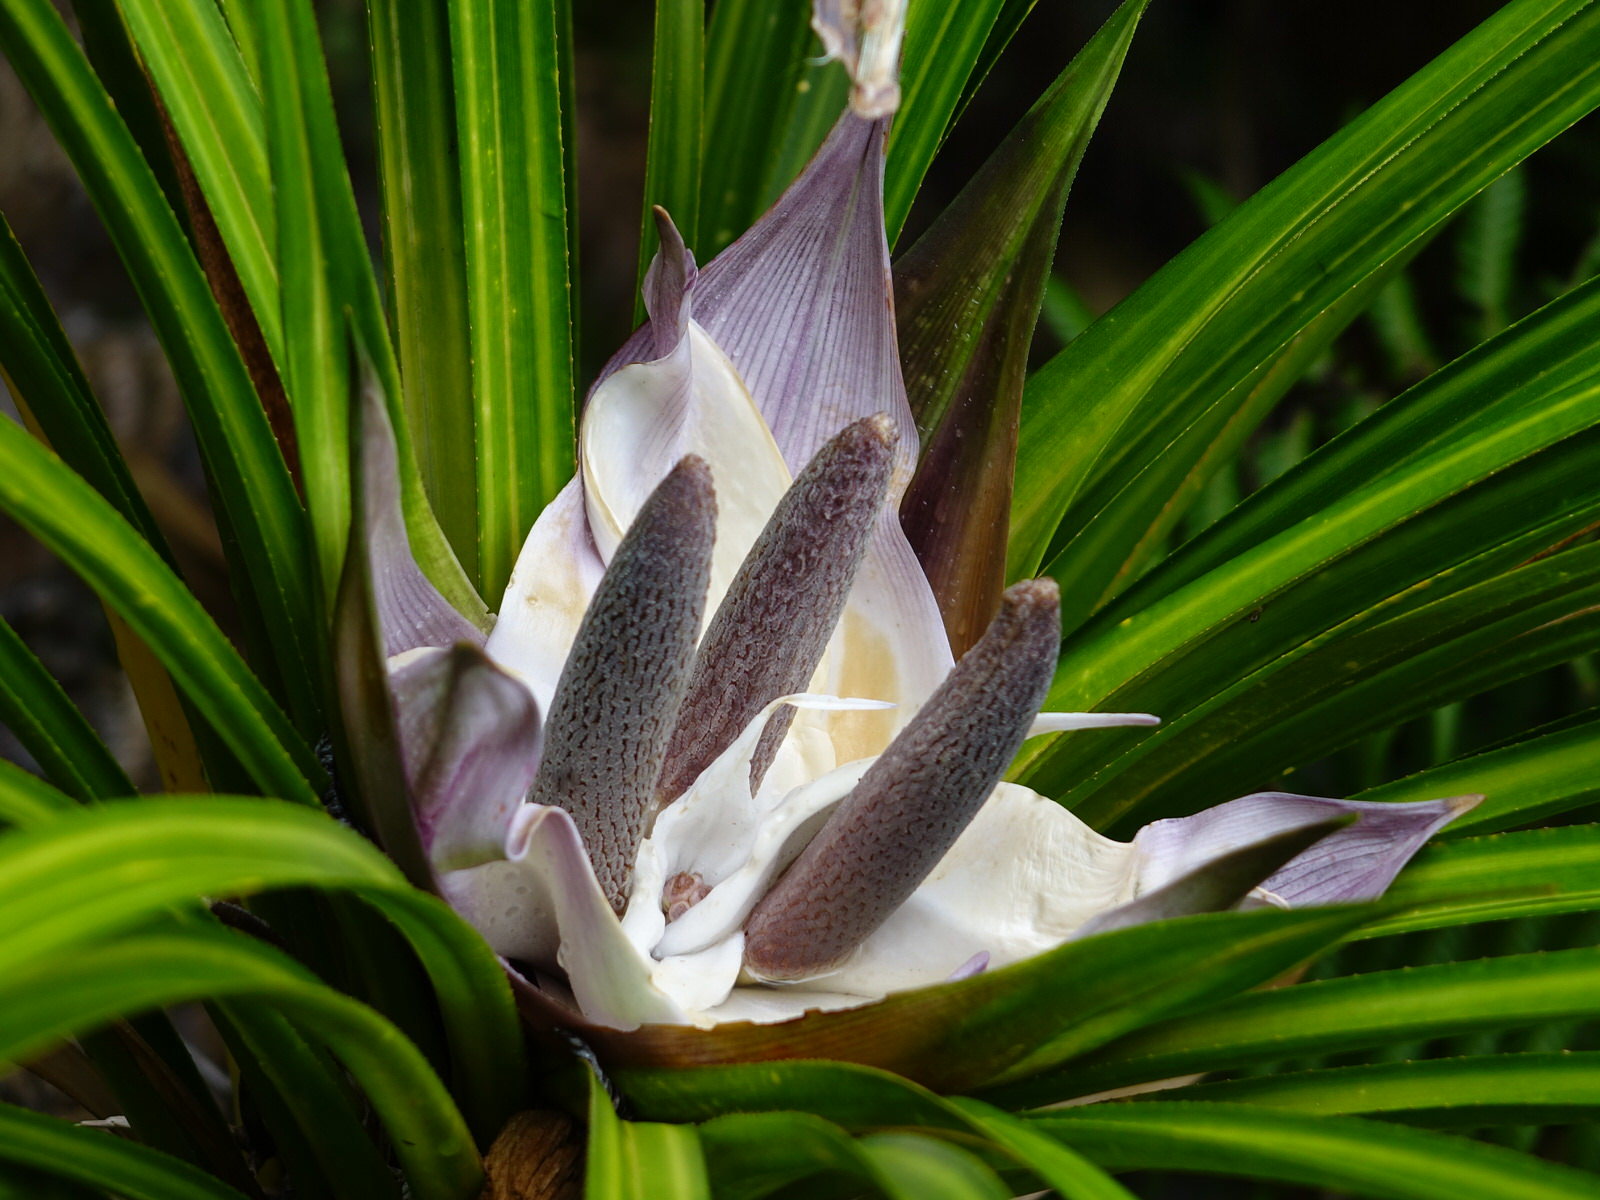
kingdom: Plantae
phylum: Tracheophyta
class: Liliopsida
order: Pandanales
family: Pandanaceae
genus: Freycinetia
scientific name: Freycinetia banksii
